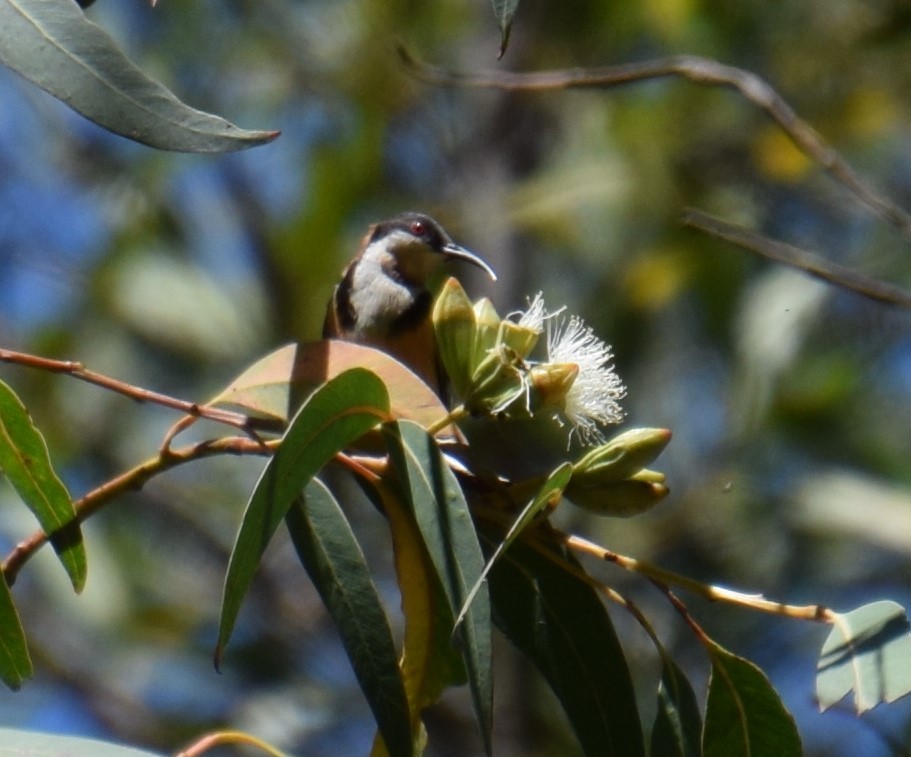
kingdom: Animalia
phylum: Chordata
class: Aves
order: Passeriformes
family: Meliphagidae
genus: Acanthorhynchus
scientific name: Acanthorhynchus tenuirostris
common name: Eastern spinebill
